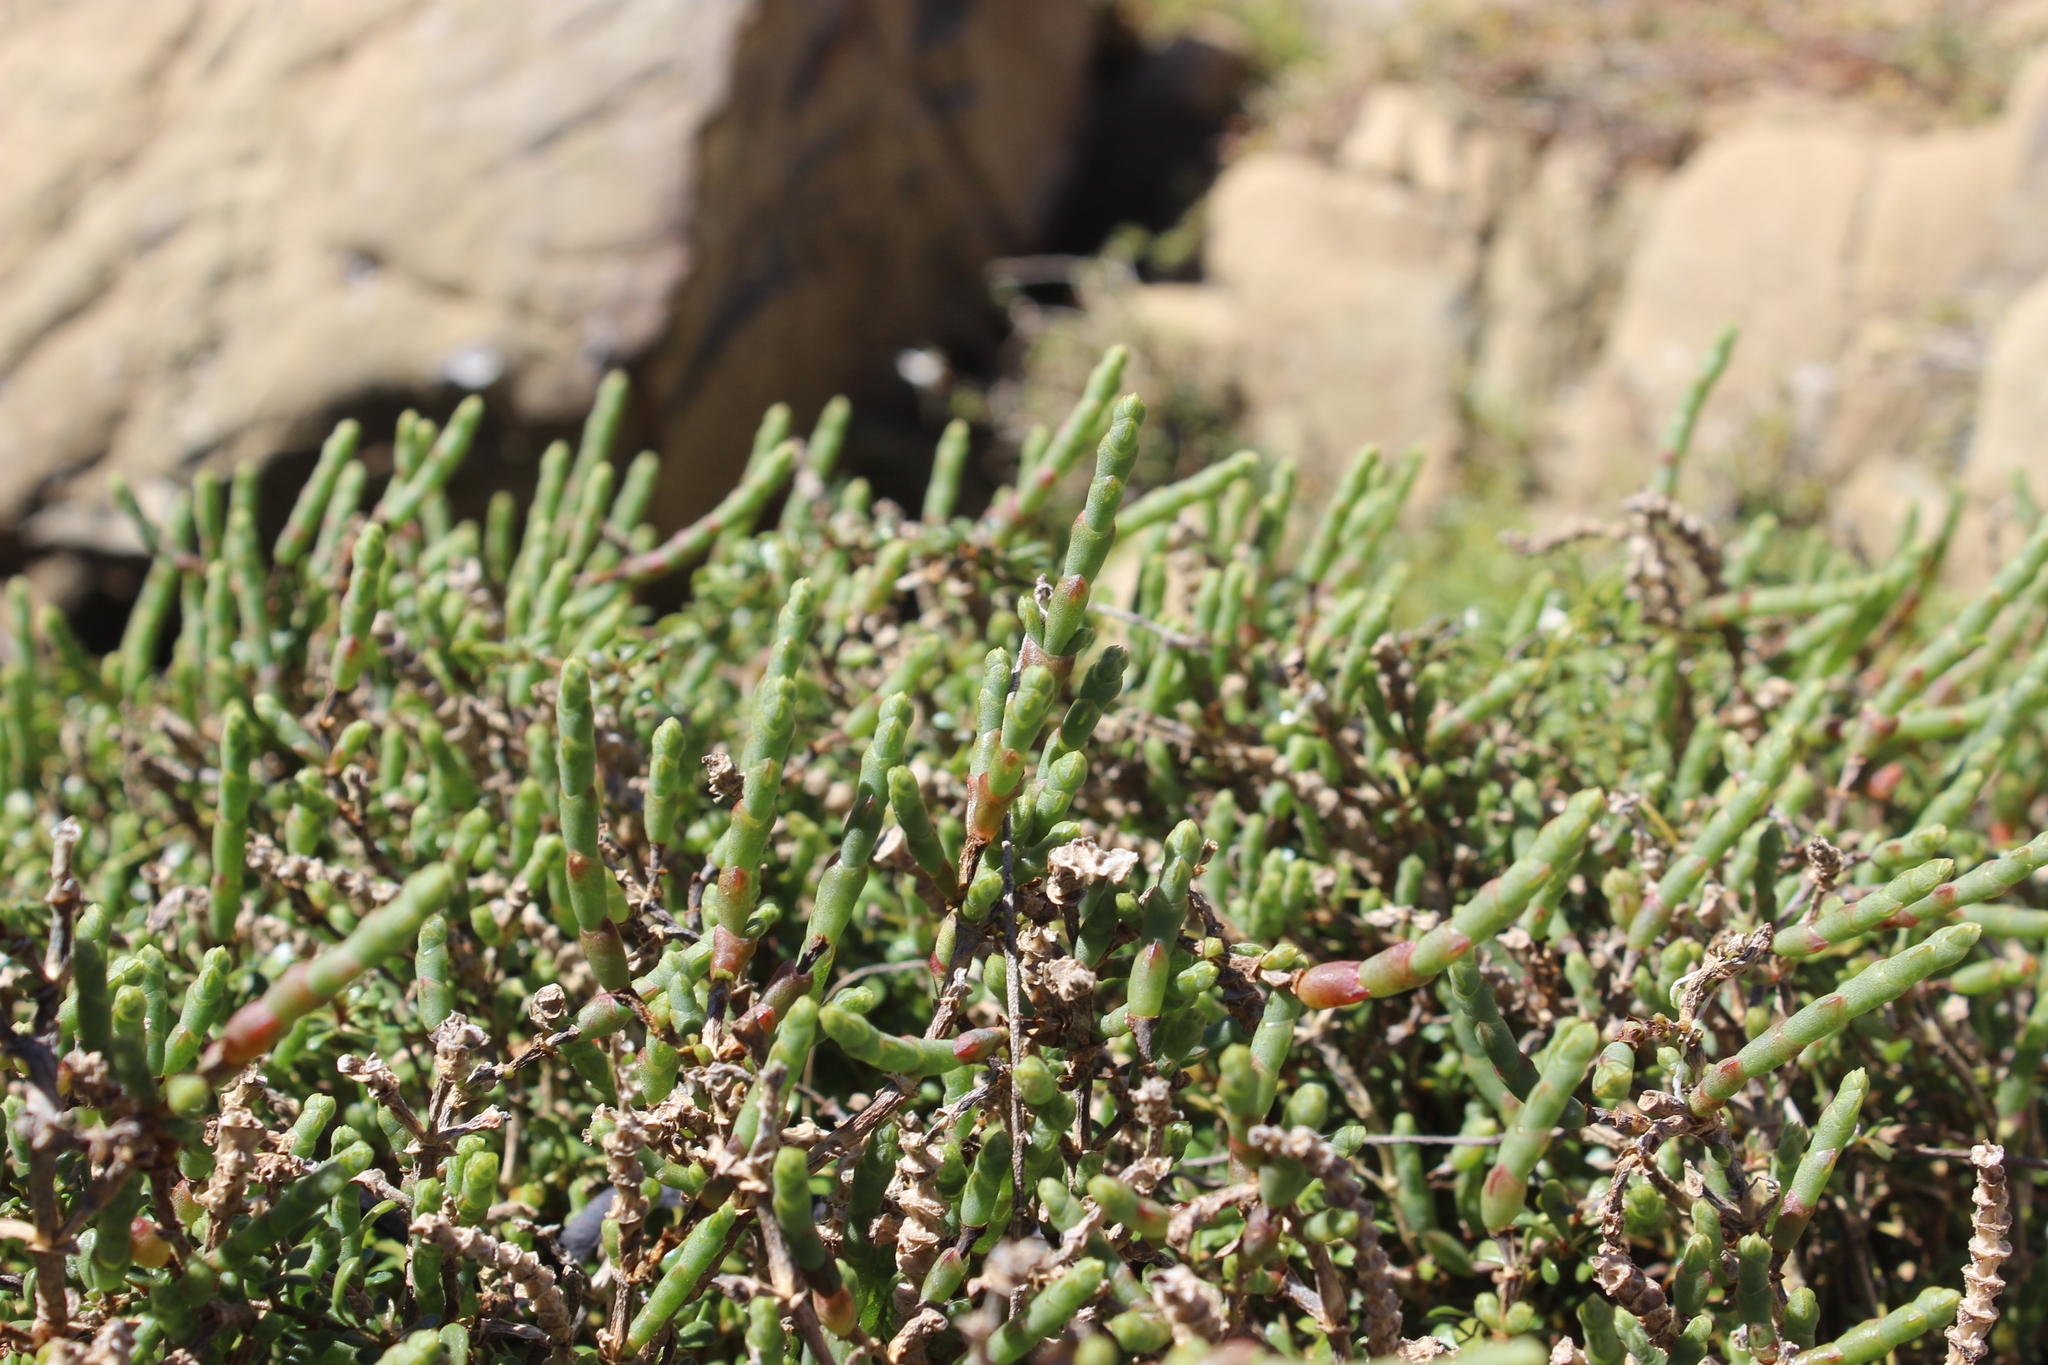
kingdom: Plantae
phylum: Tracheophyta
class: Magnoliopsida
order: Caryophyllales
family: Amaranthaceae
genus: Salicornia
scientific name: Salicornia quinqueflora
